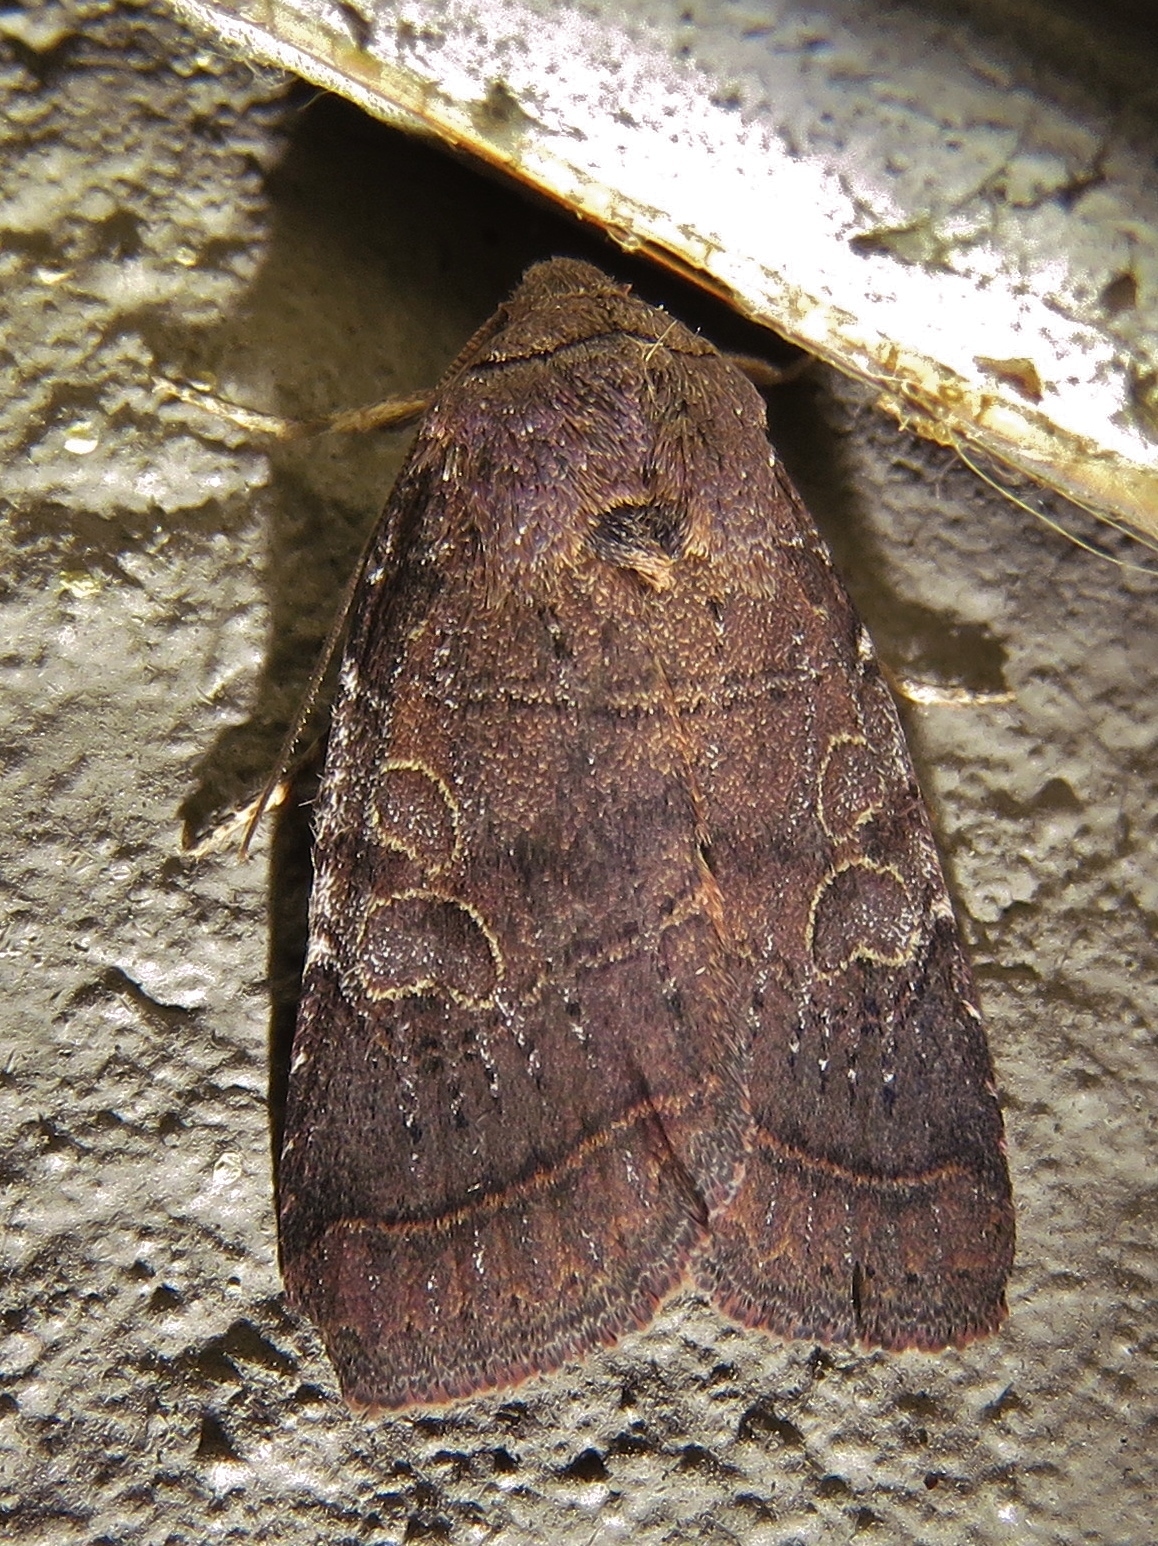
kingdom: Animalia
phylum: Arthropoda
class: Insecta
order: Lepidoptera
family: Noctuidae
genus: Orthodes
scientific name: Orthodes furtiva
